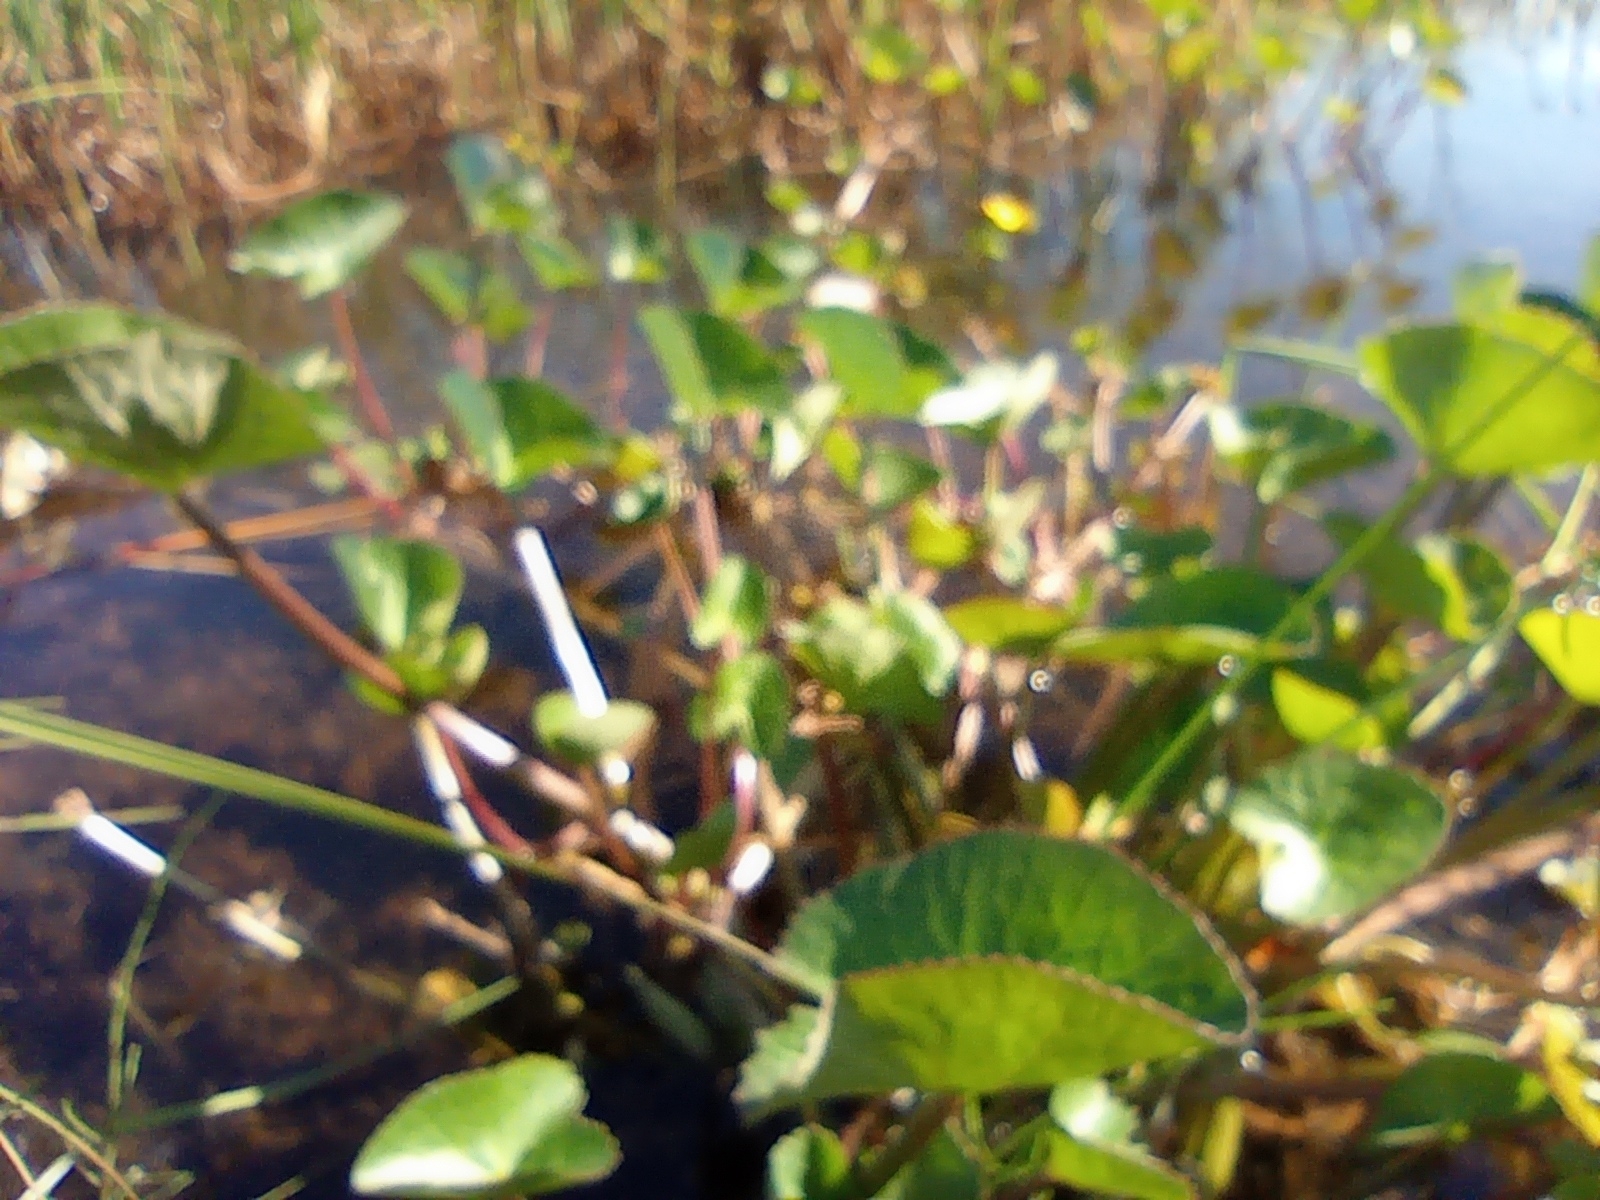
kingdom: Plantae
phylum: Tracheophyta
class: Magnoliopsida
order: Ranunculales
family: Ranunculaceae
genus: Caltha
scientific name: Caltha palustris
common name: Marsh marigold
